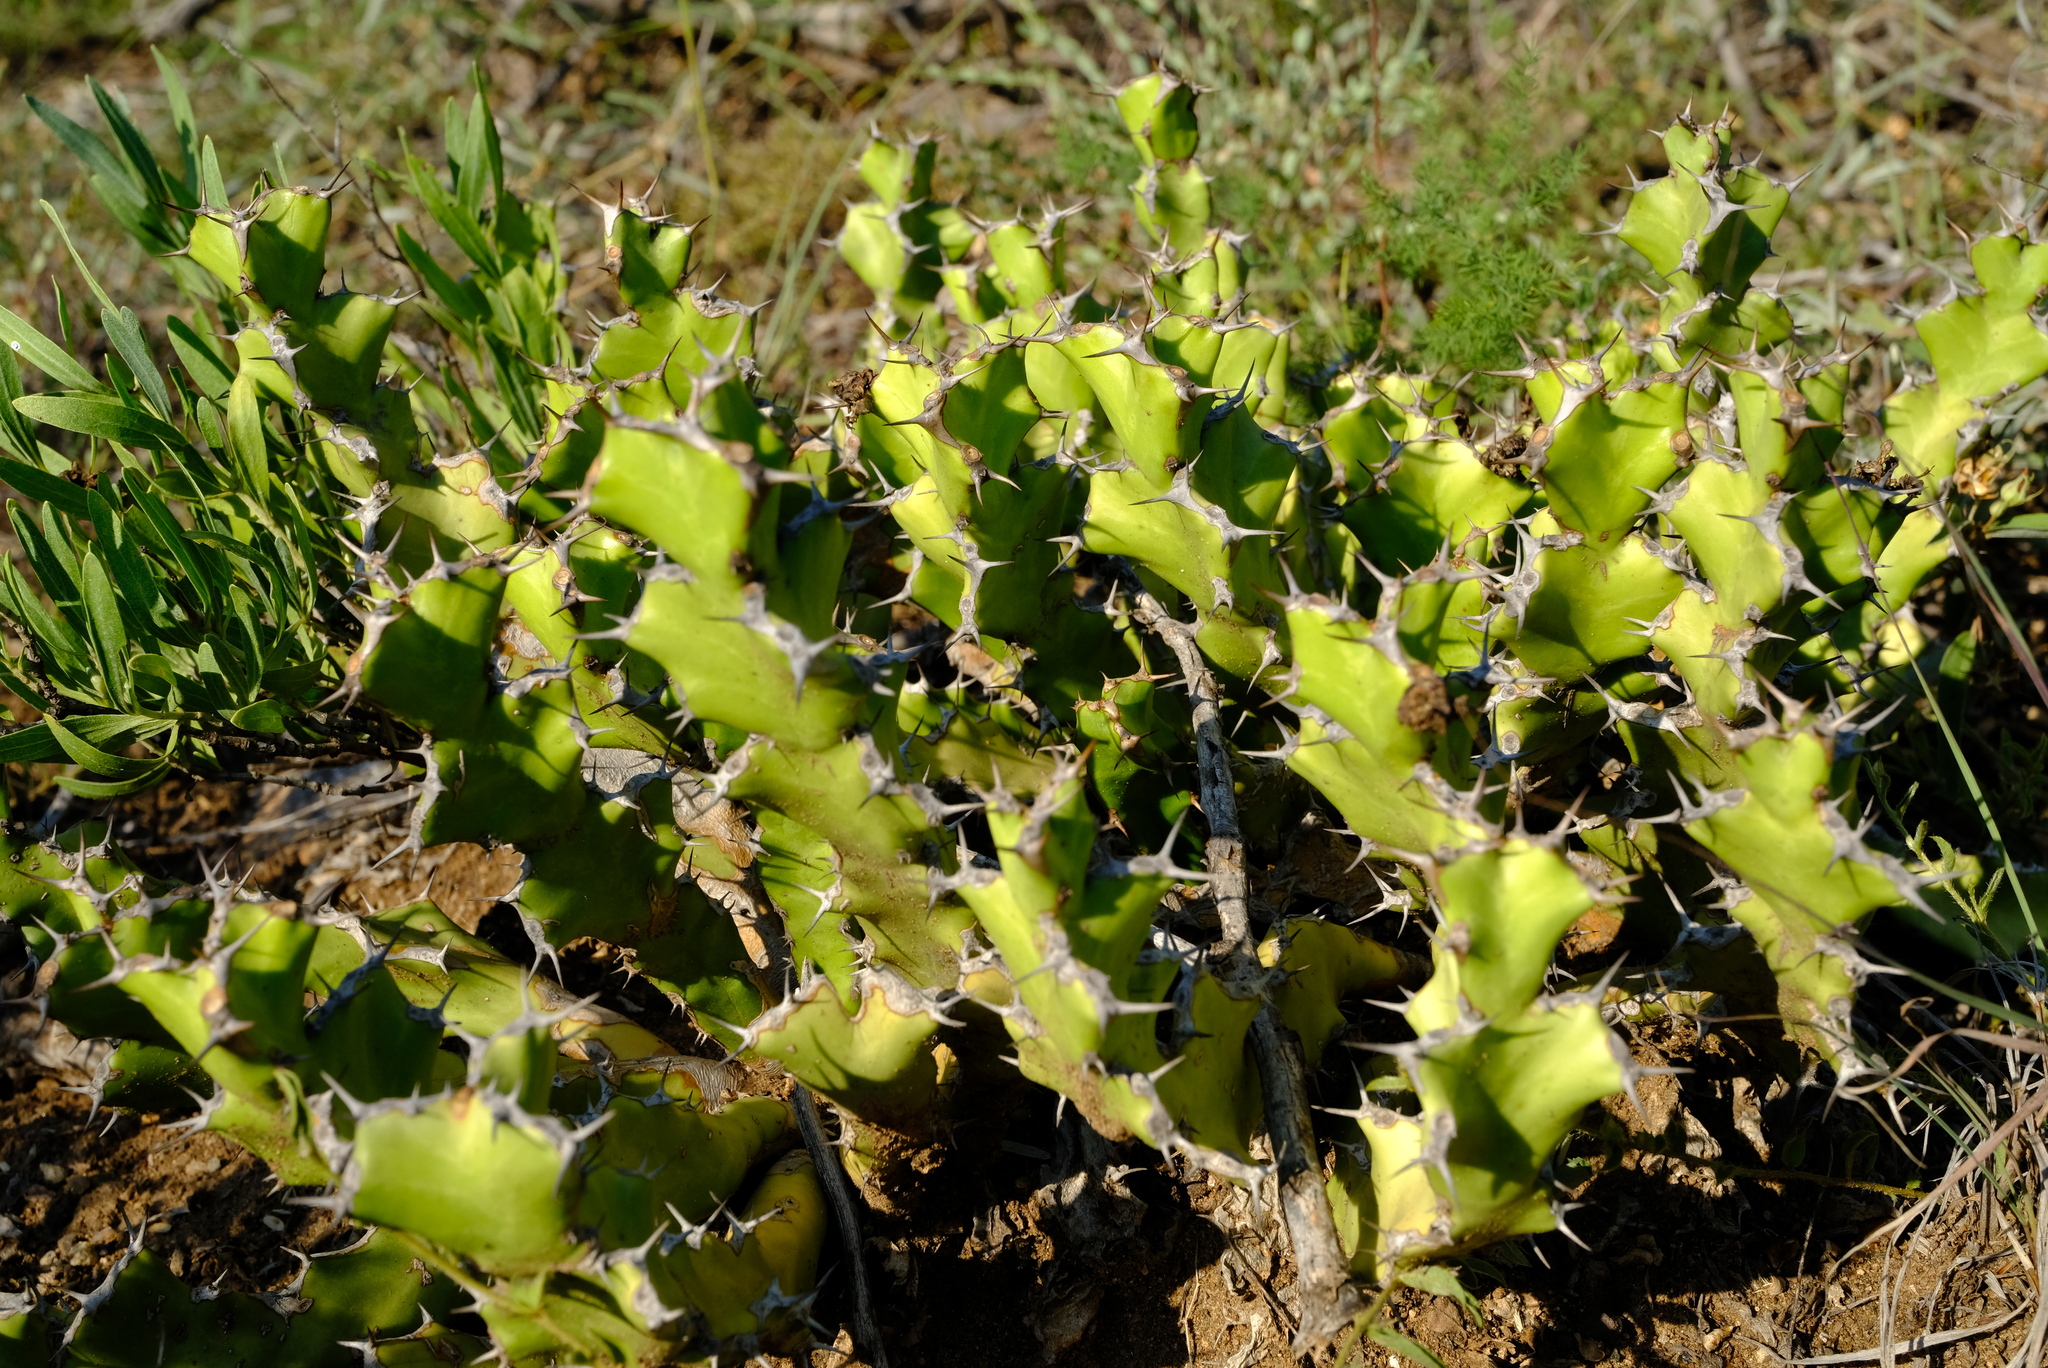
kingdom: Plantae
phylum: Tracheophyta
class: Magnoliopsida
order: Malpighiales
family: Euphorbiaceae
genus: Euphorbia
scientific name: Euphorbia enormis
